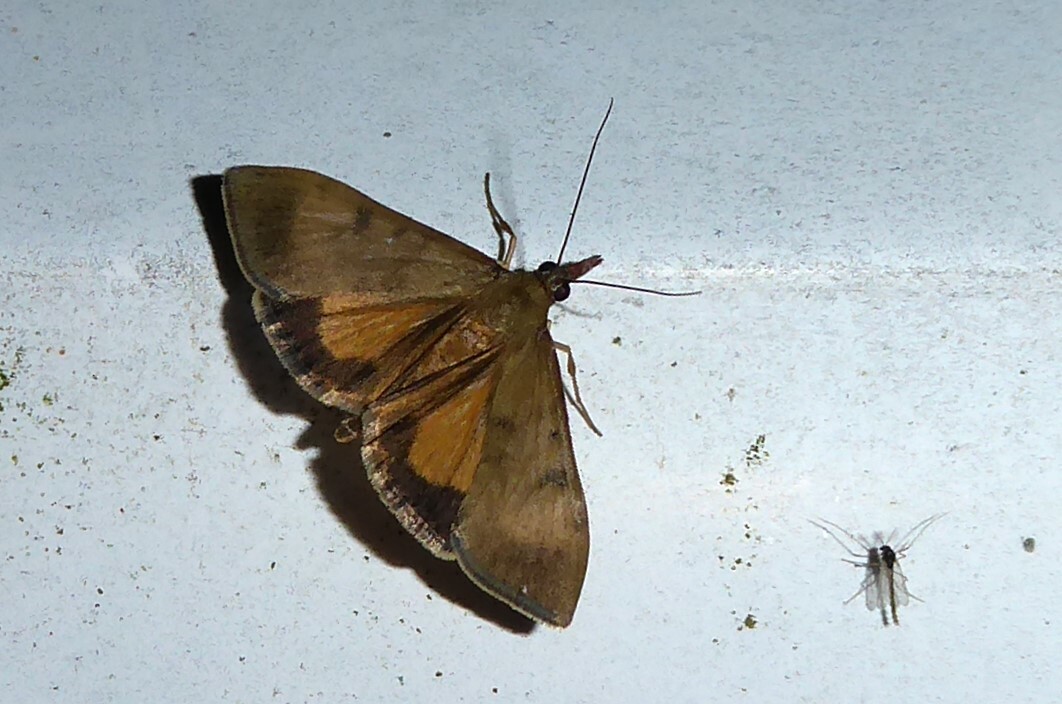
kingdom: Animalia
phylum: Arthropoda
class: Insecta
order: Lepidoptera
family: Crambidae
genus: Uresiphita
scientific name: Uresiphita
